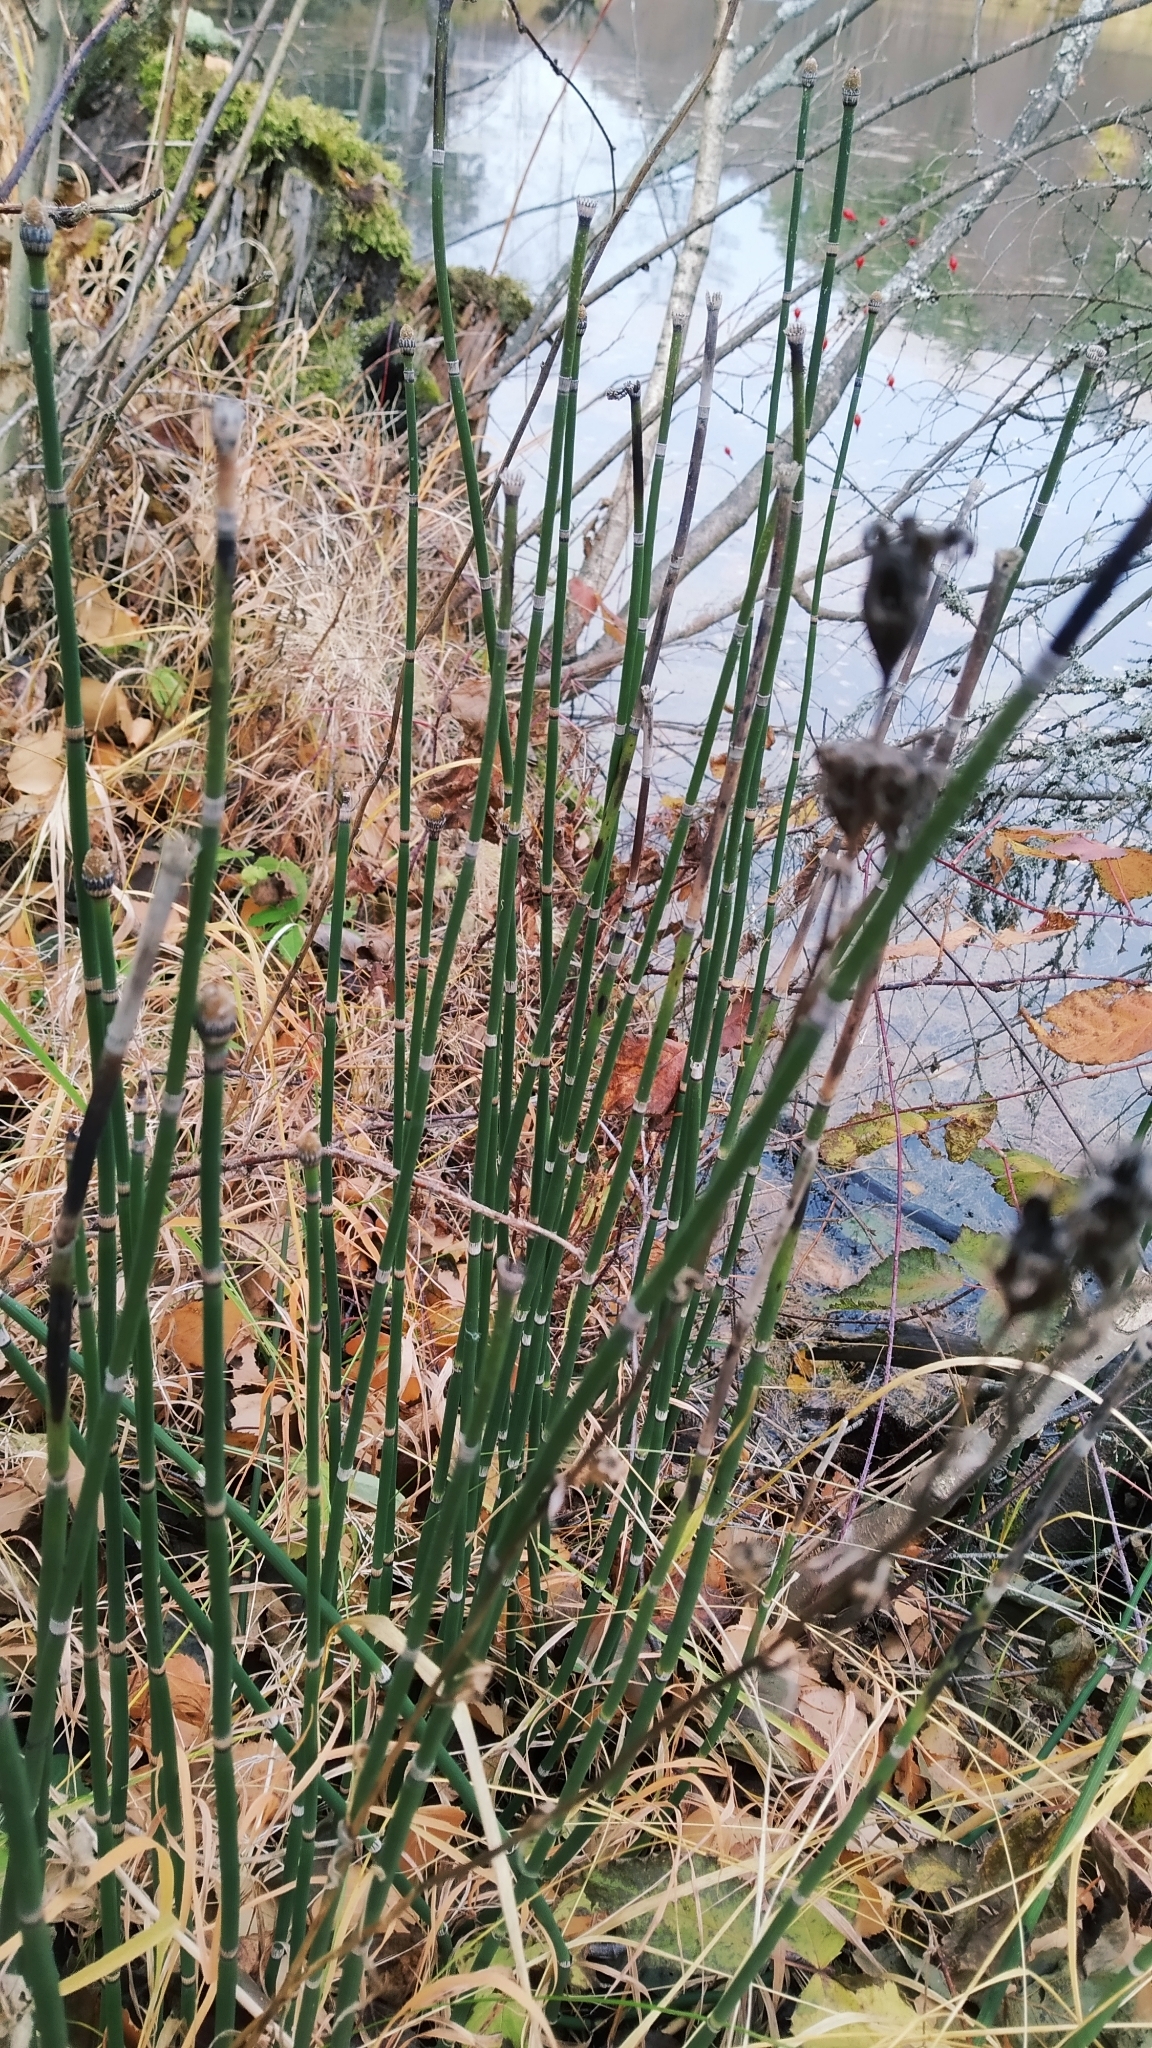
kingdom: Plantae
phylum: Tracheophyta
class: Polypodiopsida
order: Equisetales
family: Equisetaceae
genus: Equisetum
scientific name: Equisetum hyemale
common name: Rough horsetail
